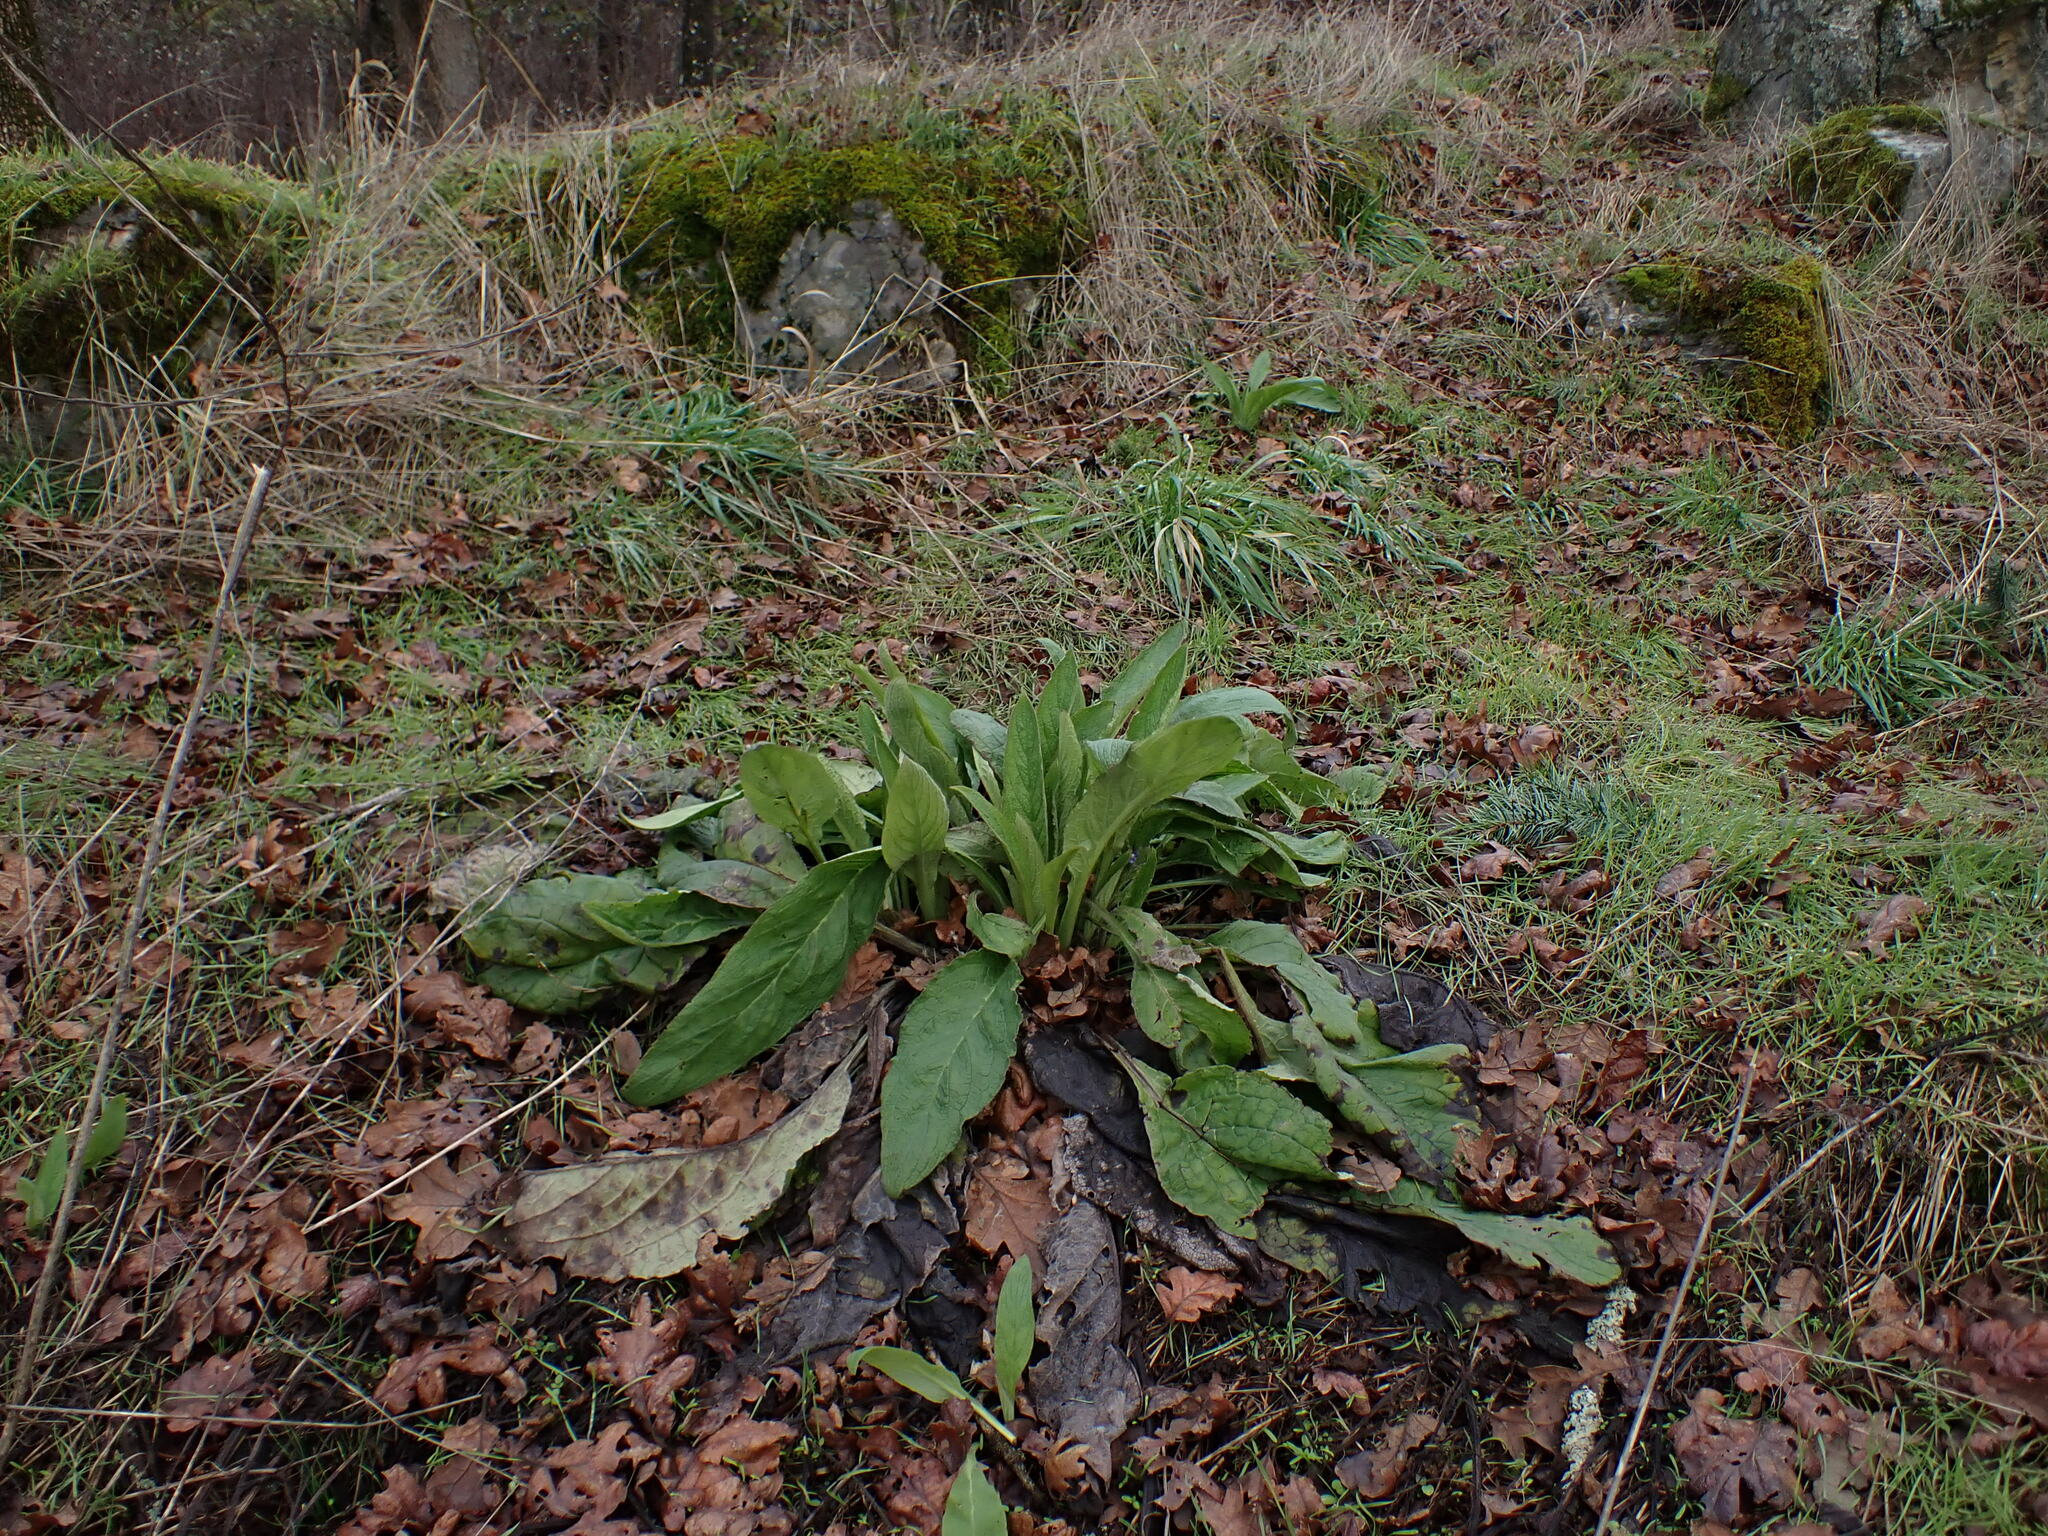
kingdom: Plantae
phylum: Tracheophyta
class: Magnoliopsida
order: Lamiales
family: Plantaginaceae
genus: Digitalis
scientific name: Digitalis purpurea
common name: Foxglove
